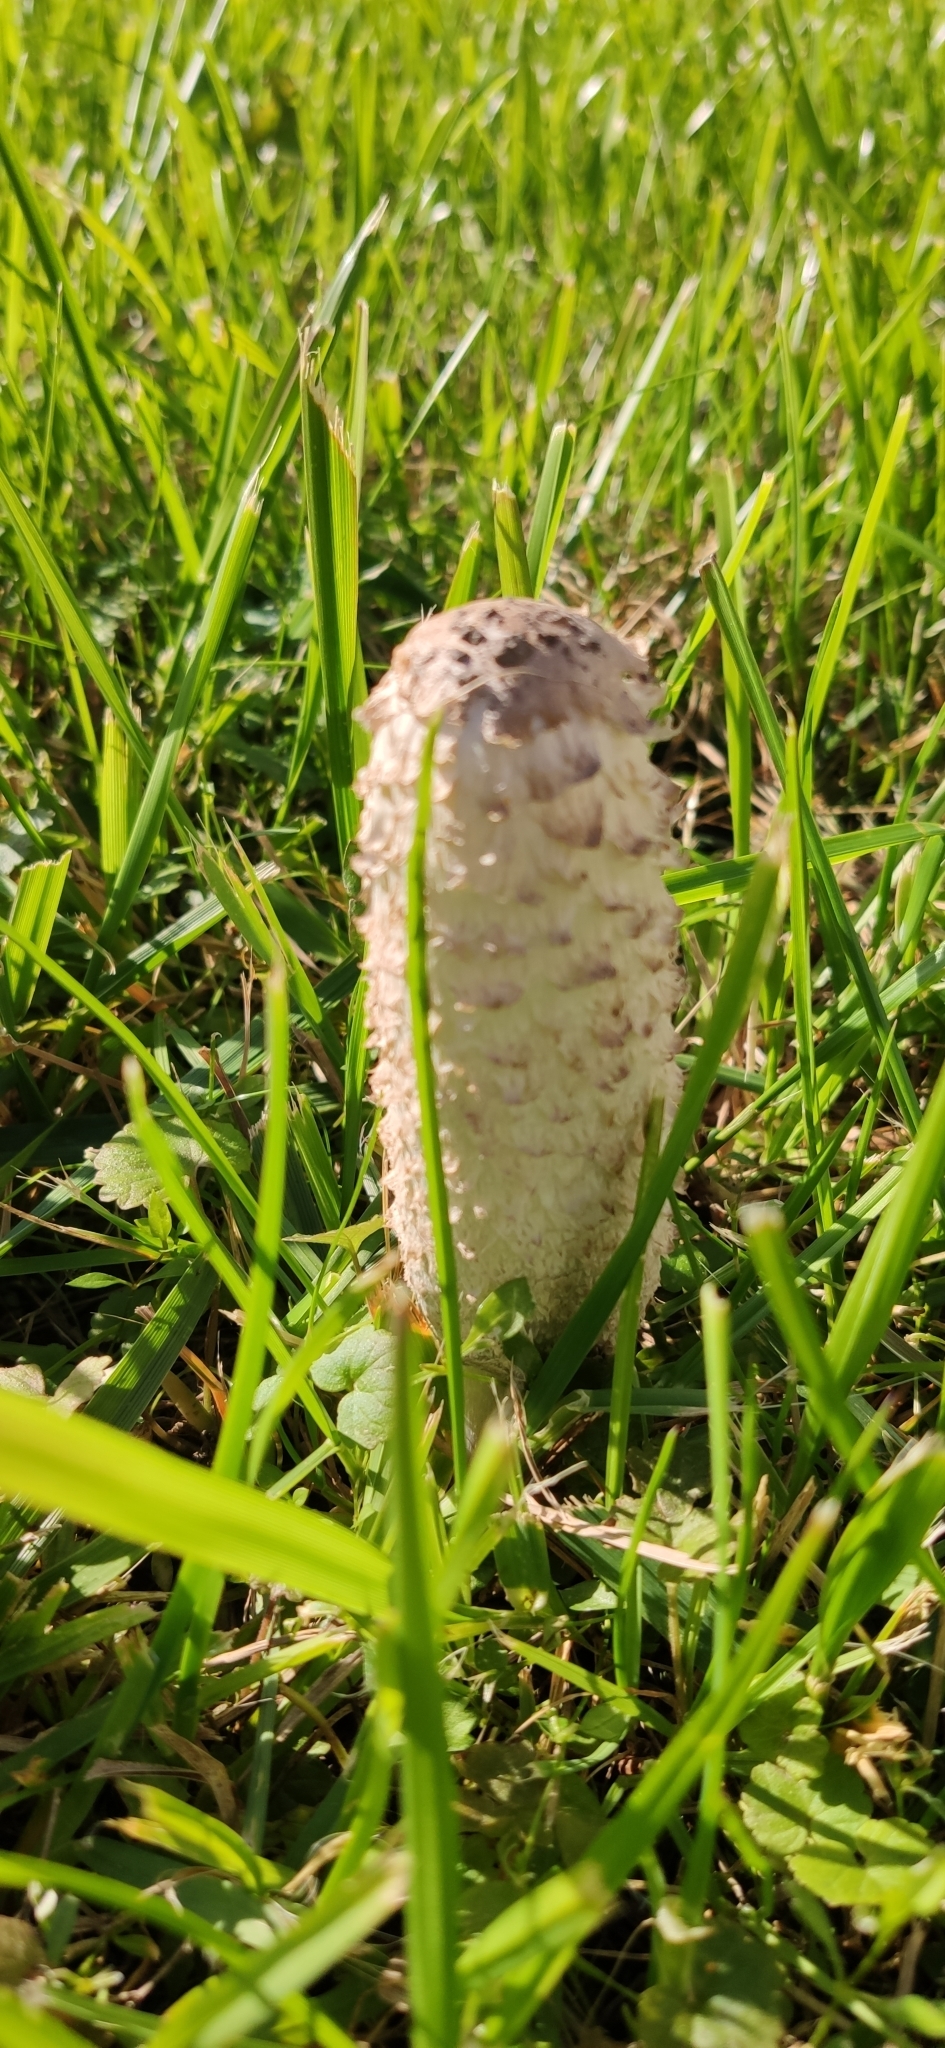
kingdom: Fungi
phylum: Basidiomycota
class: Agaricomycetes
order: Agaricales
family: Agaricaceae
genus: Coprinus
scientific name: Coprinus comatus
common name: Lawyer's wig
